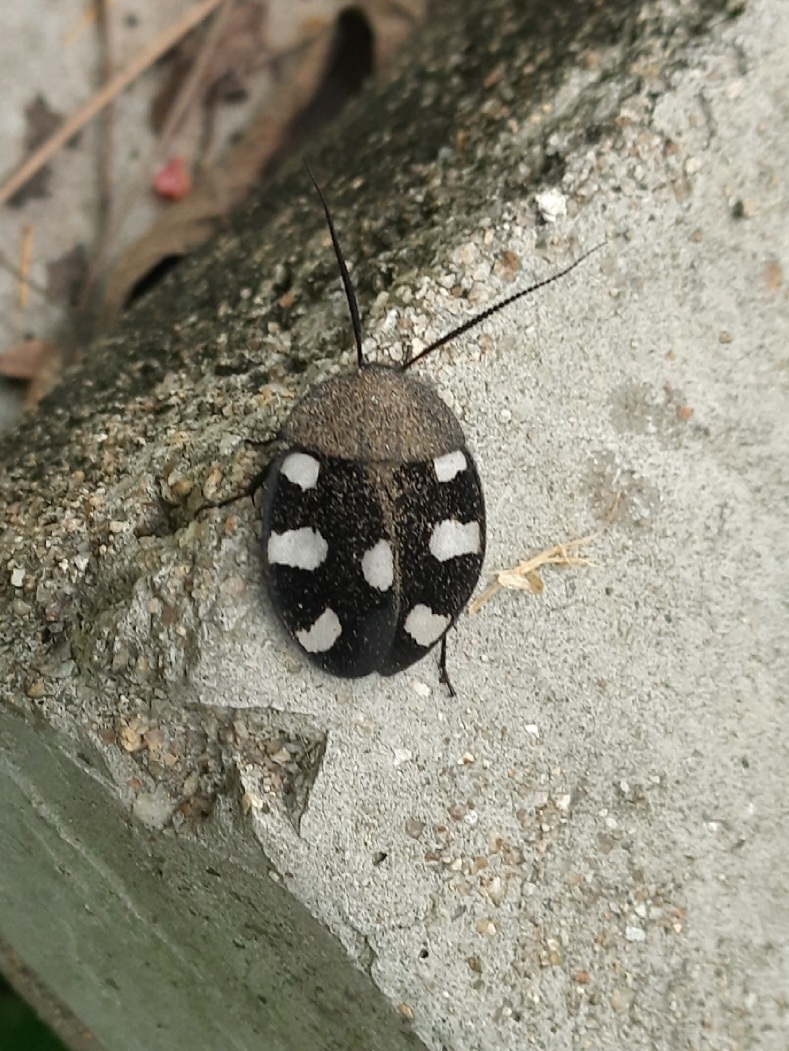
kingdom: Animalia
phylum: Arthropoda
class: Insecta
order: Blattodea
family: Corydiidae
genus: Therea
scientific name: Therea petiveriana
